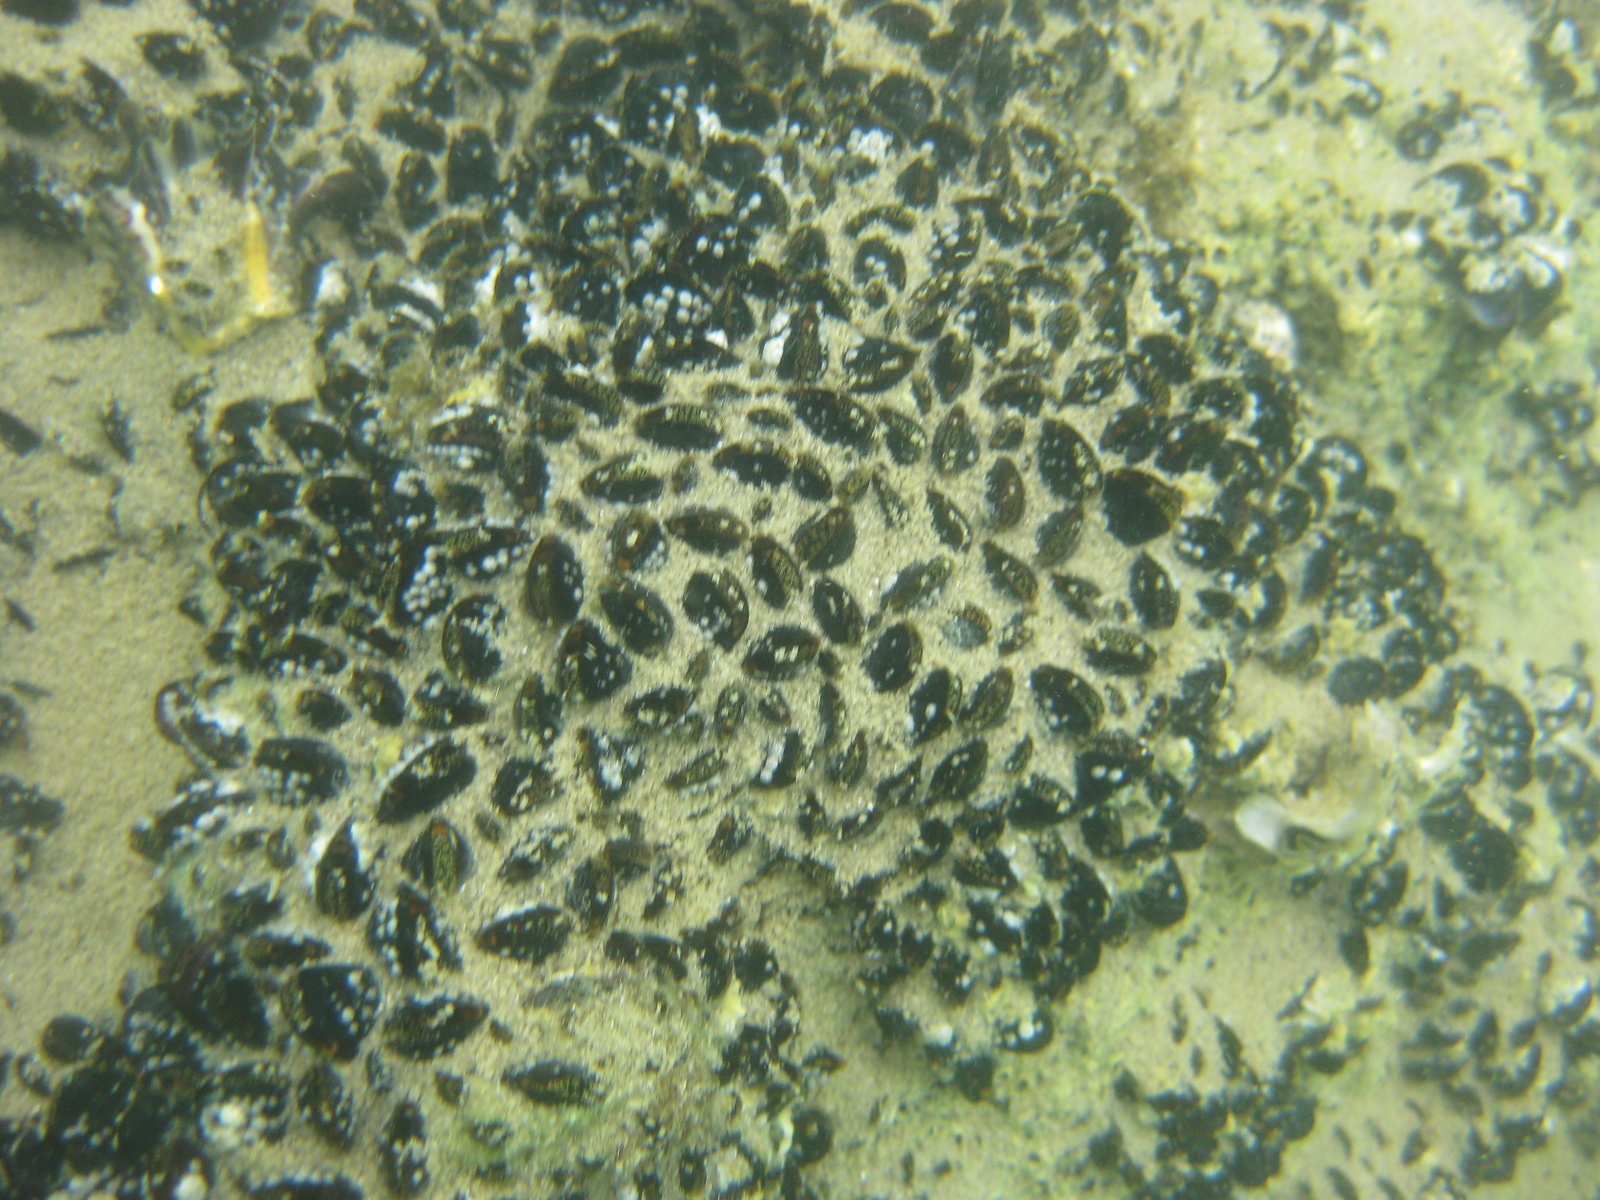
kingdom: Animalia
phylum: Mollusca
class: Bivalvia
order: Mytilida
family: Mytilidae
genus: Xenostrobus
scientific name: Xenostrobus neozelanicus
